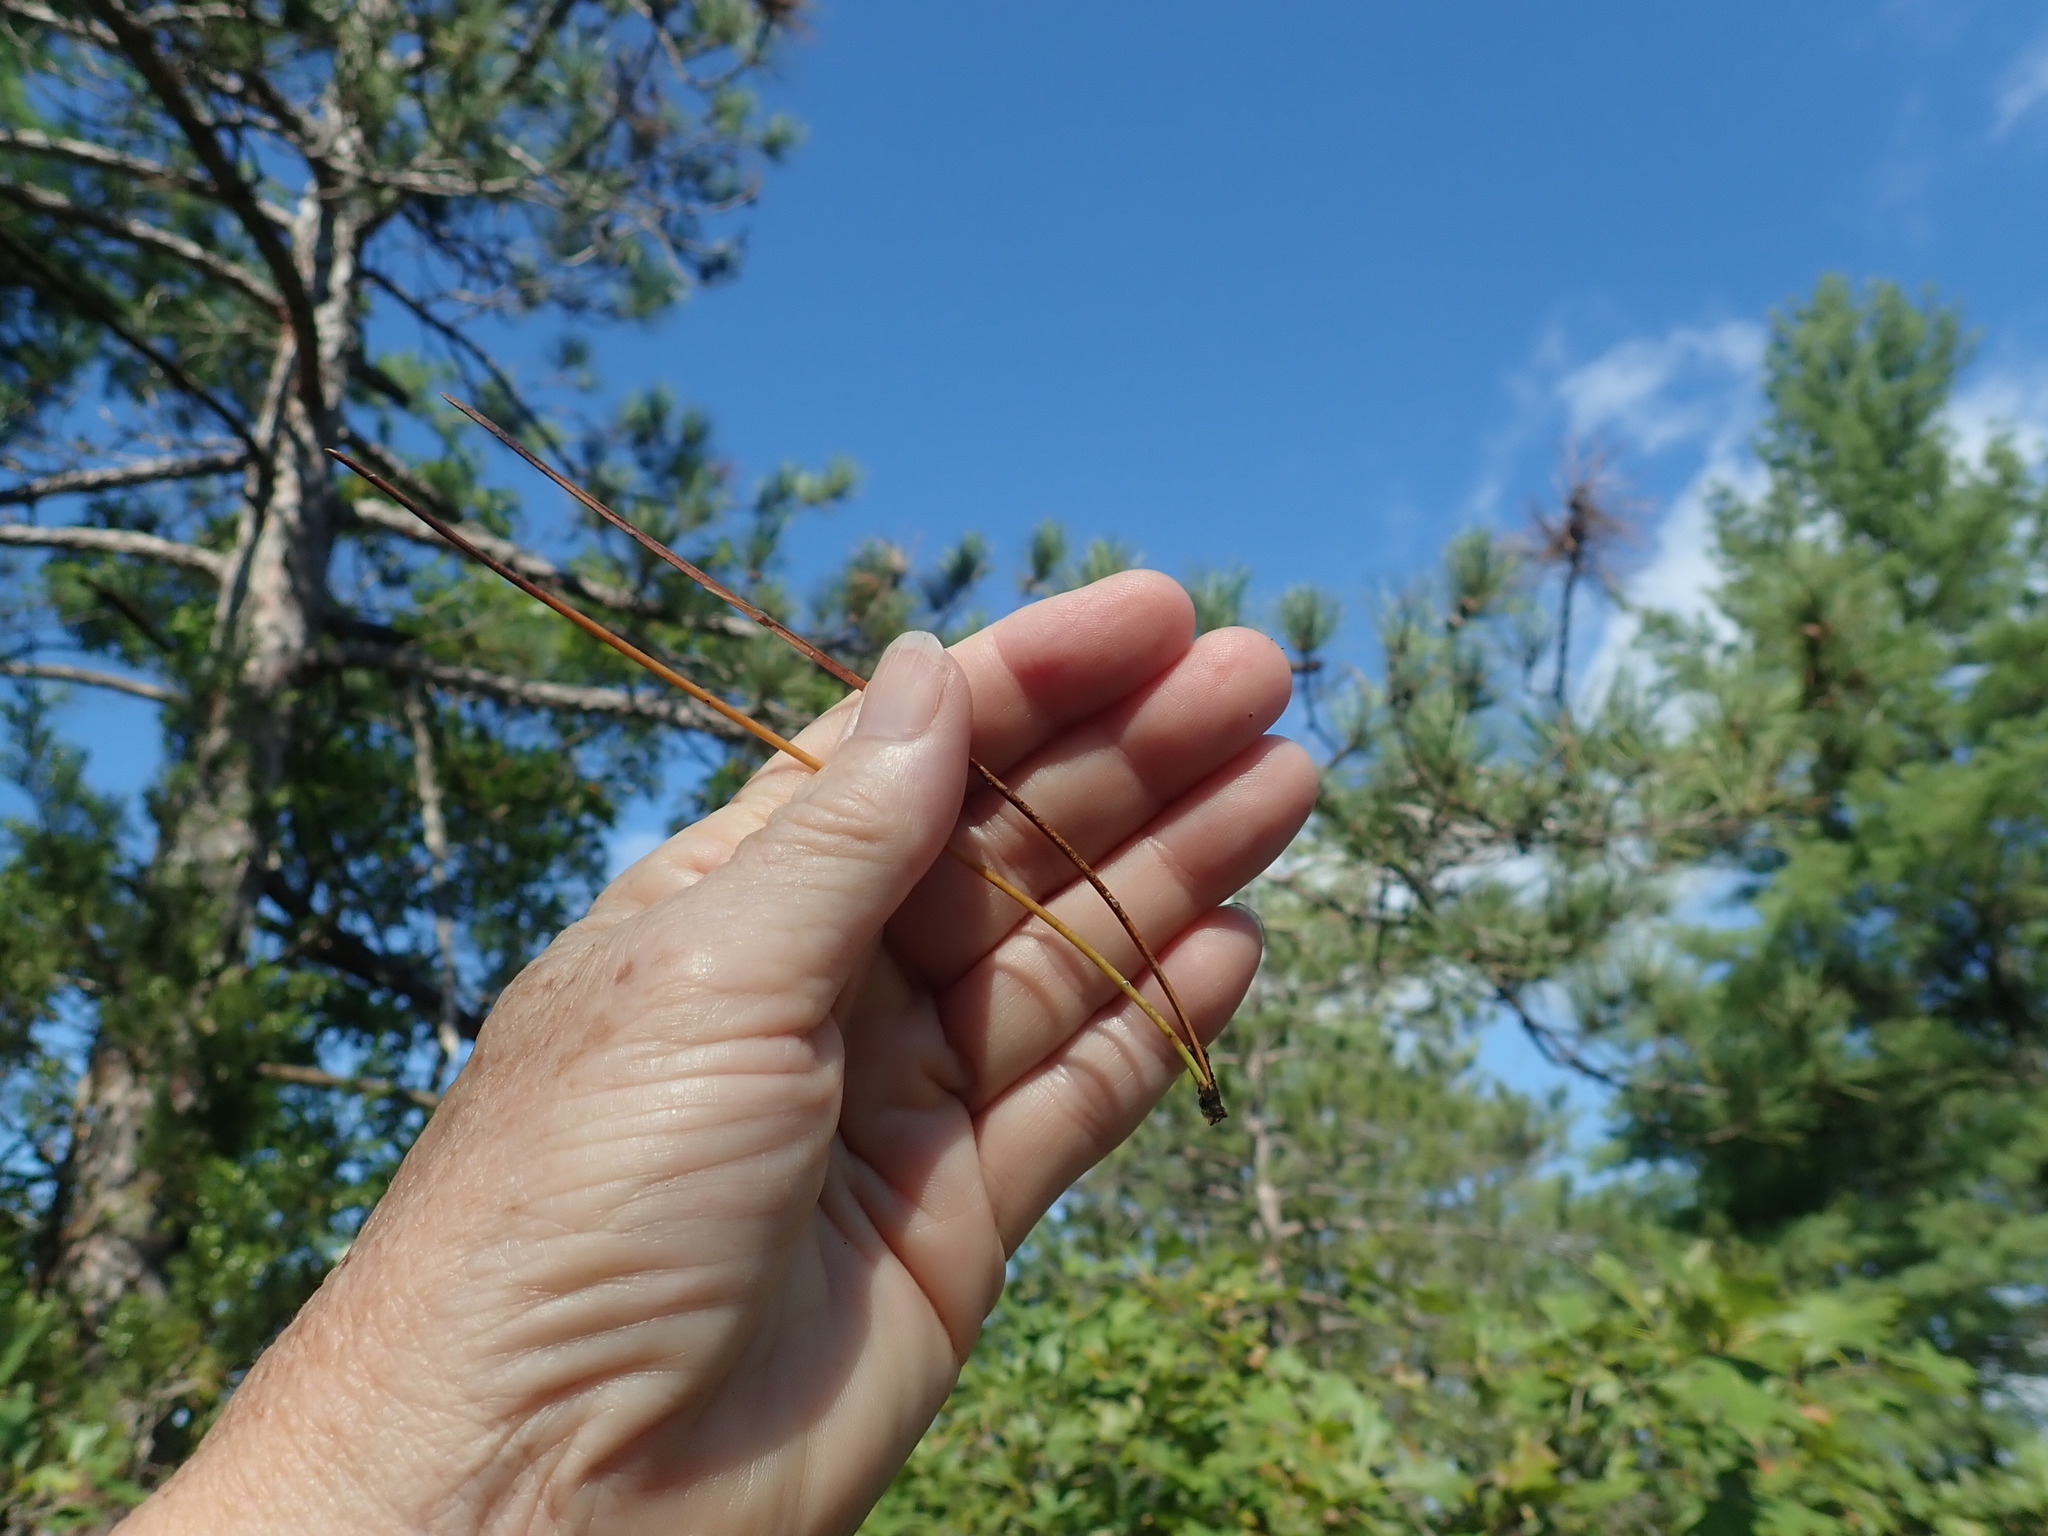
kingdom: Plantae
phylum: Tracheophyta
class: Pinopsida
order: Pinales
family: Pinaceae
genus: Pinus
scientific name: Pinus resinosa
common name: Norway pine
